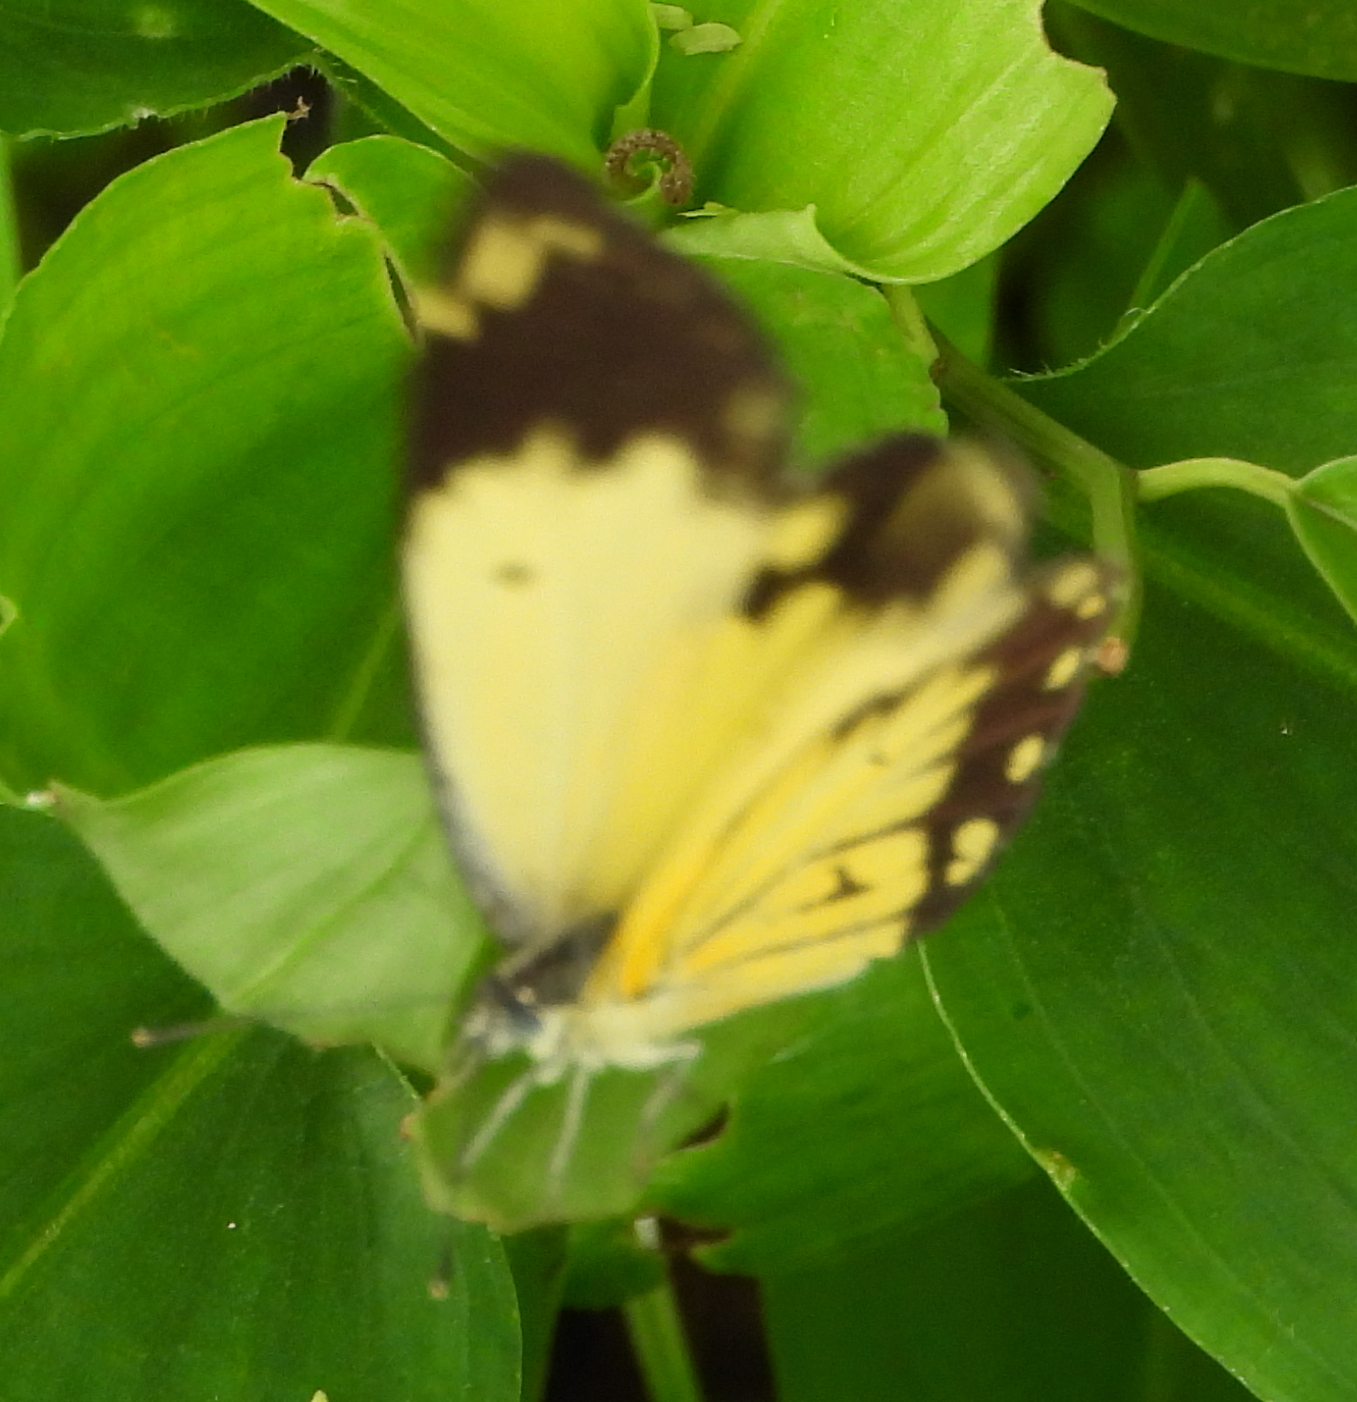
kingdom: Animalia
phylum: Arthropoda
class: Insecta
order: Lepidoptera
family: Pieridae
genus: Belenois
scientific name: Belenois creona
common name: African caper white
